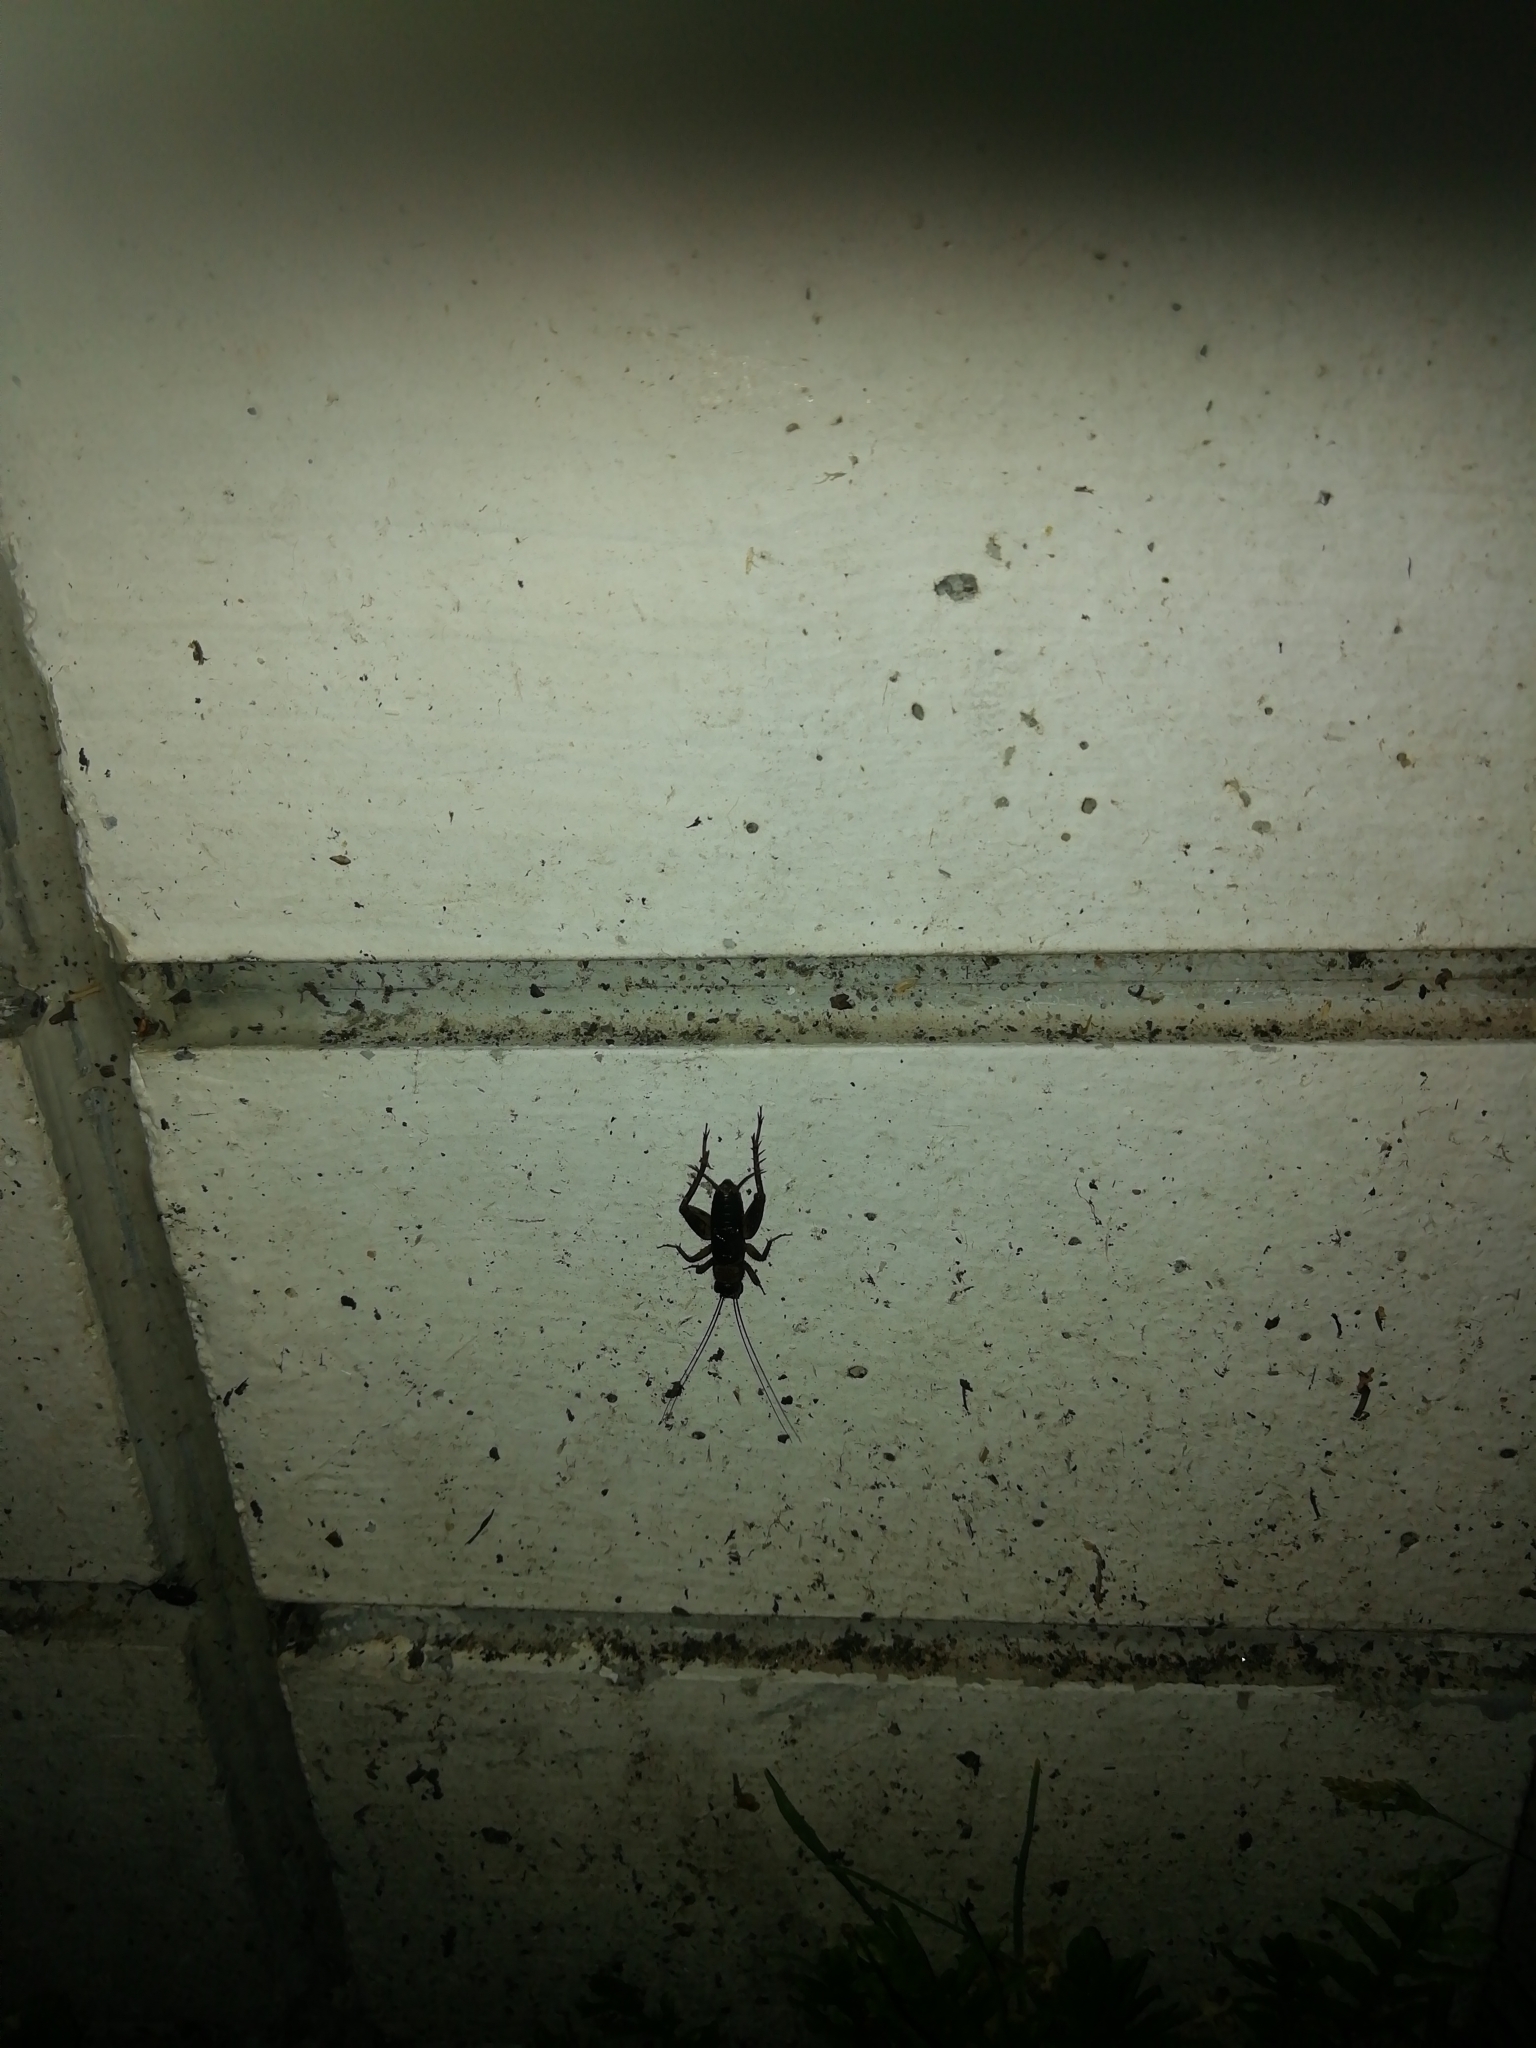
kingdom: Animalia
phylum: Arthropoda
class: Insecta
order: Orthoptera
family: Trigonidiidae
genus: Nemobius
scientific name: Nemobius sylvestris
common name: Wood-cricket
